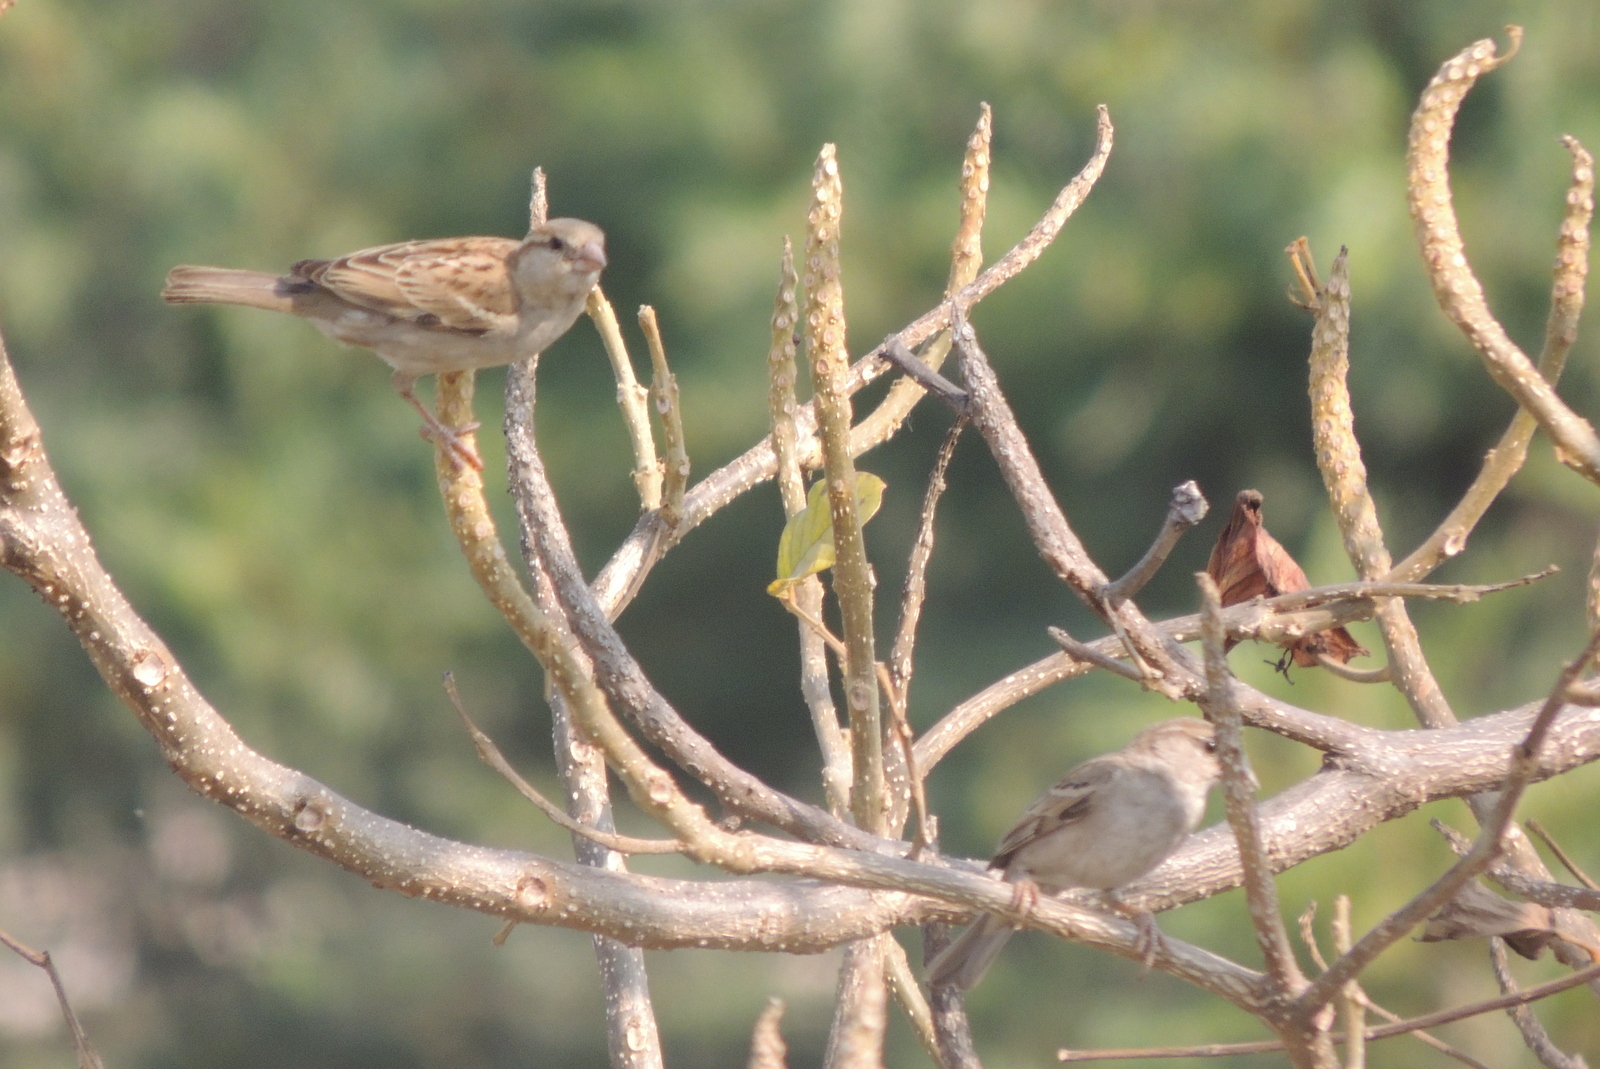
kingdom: Animalia
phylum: Chordata
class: Aves
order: Passeriformes
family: Passeridae
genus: Passer
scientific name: Passer domesticus
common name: House sparrow
